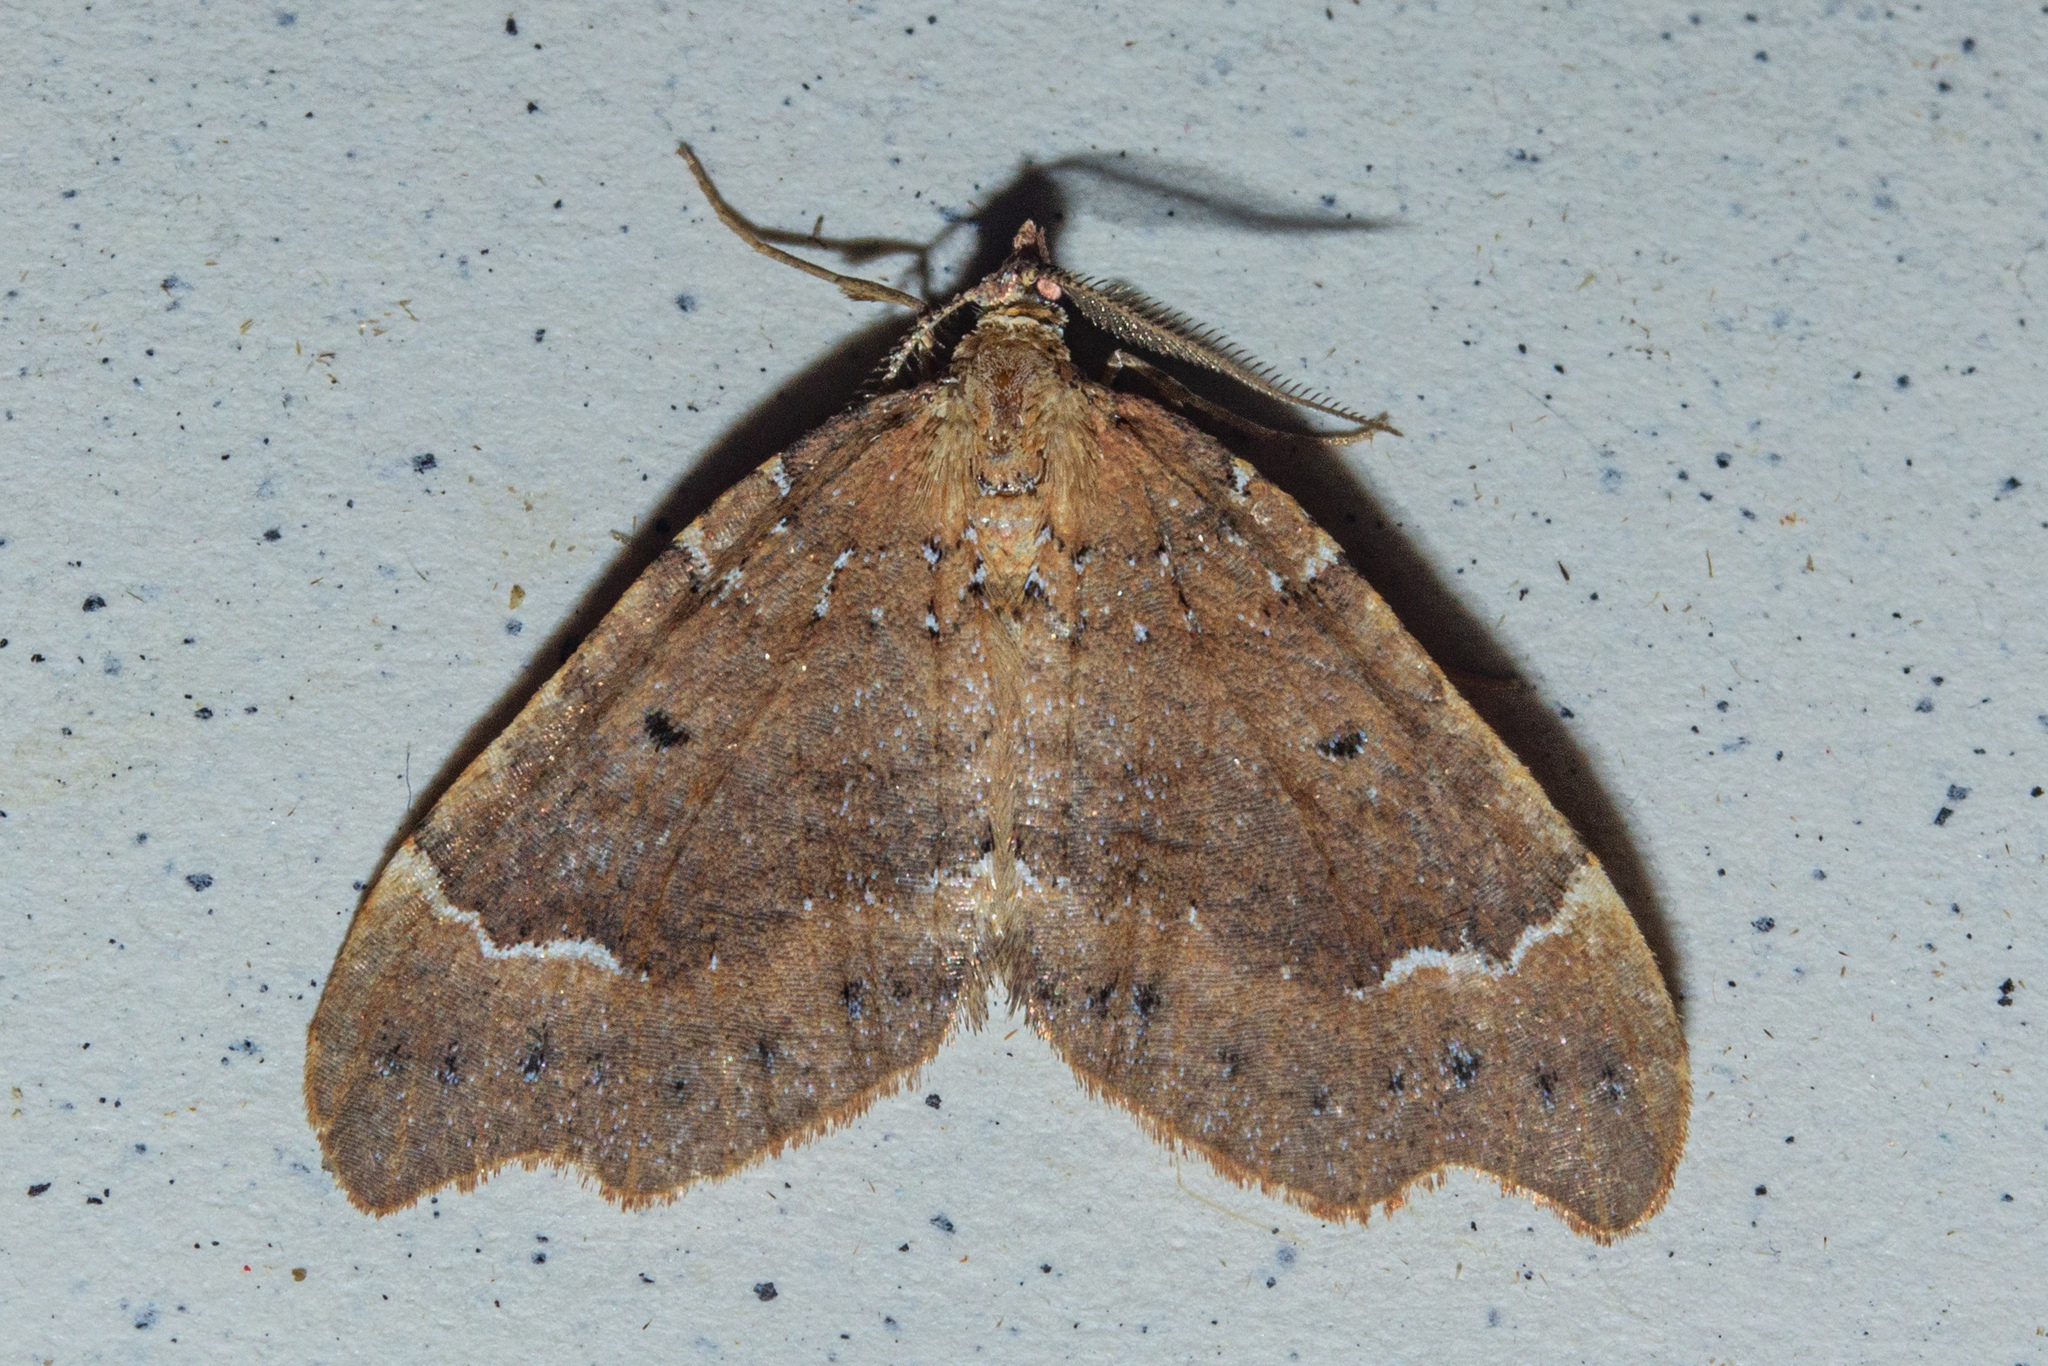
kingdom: Animalia
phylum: Arthropoda
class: Insecta
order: Lepidoptera
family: Geometridae
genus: Asaphodes
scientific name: Asaphodes camelias
